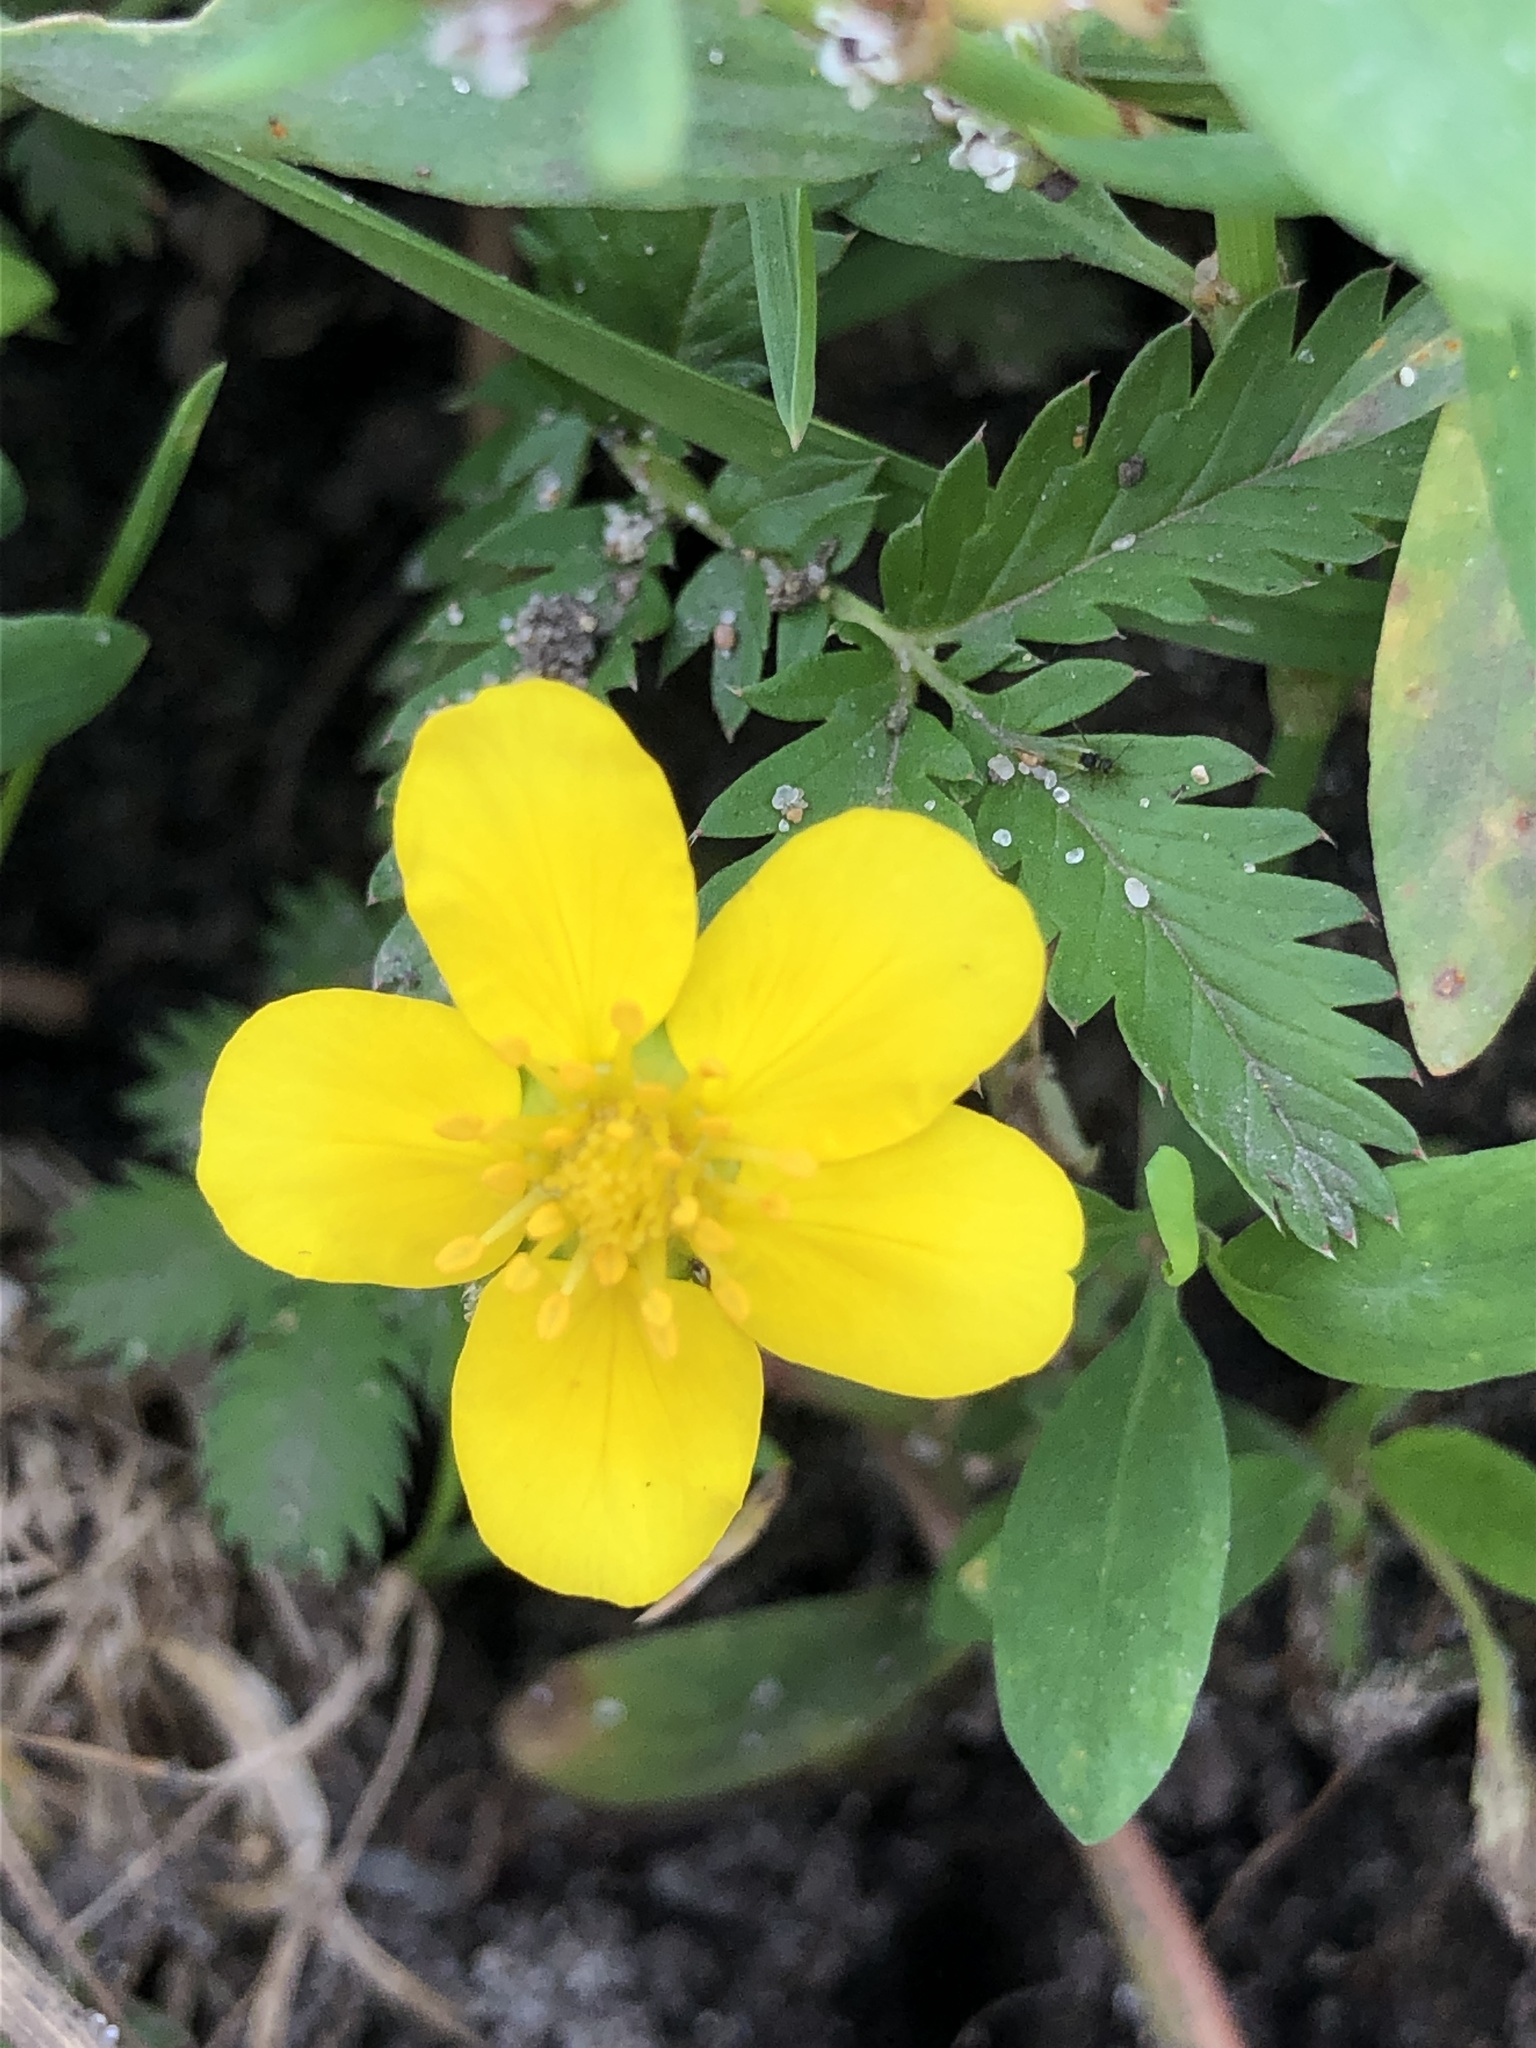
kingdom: Plantae
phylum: Tracheophyta
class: Magnoliopsida
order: Rosales
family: Rosaceae
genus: Argentina
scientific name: Argentina anserina
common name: Common silverweed
